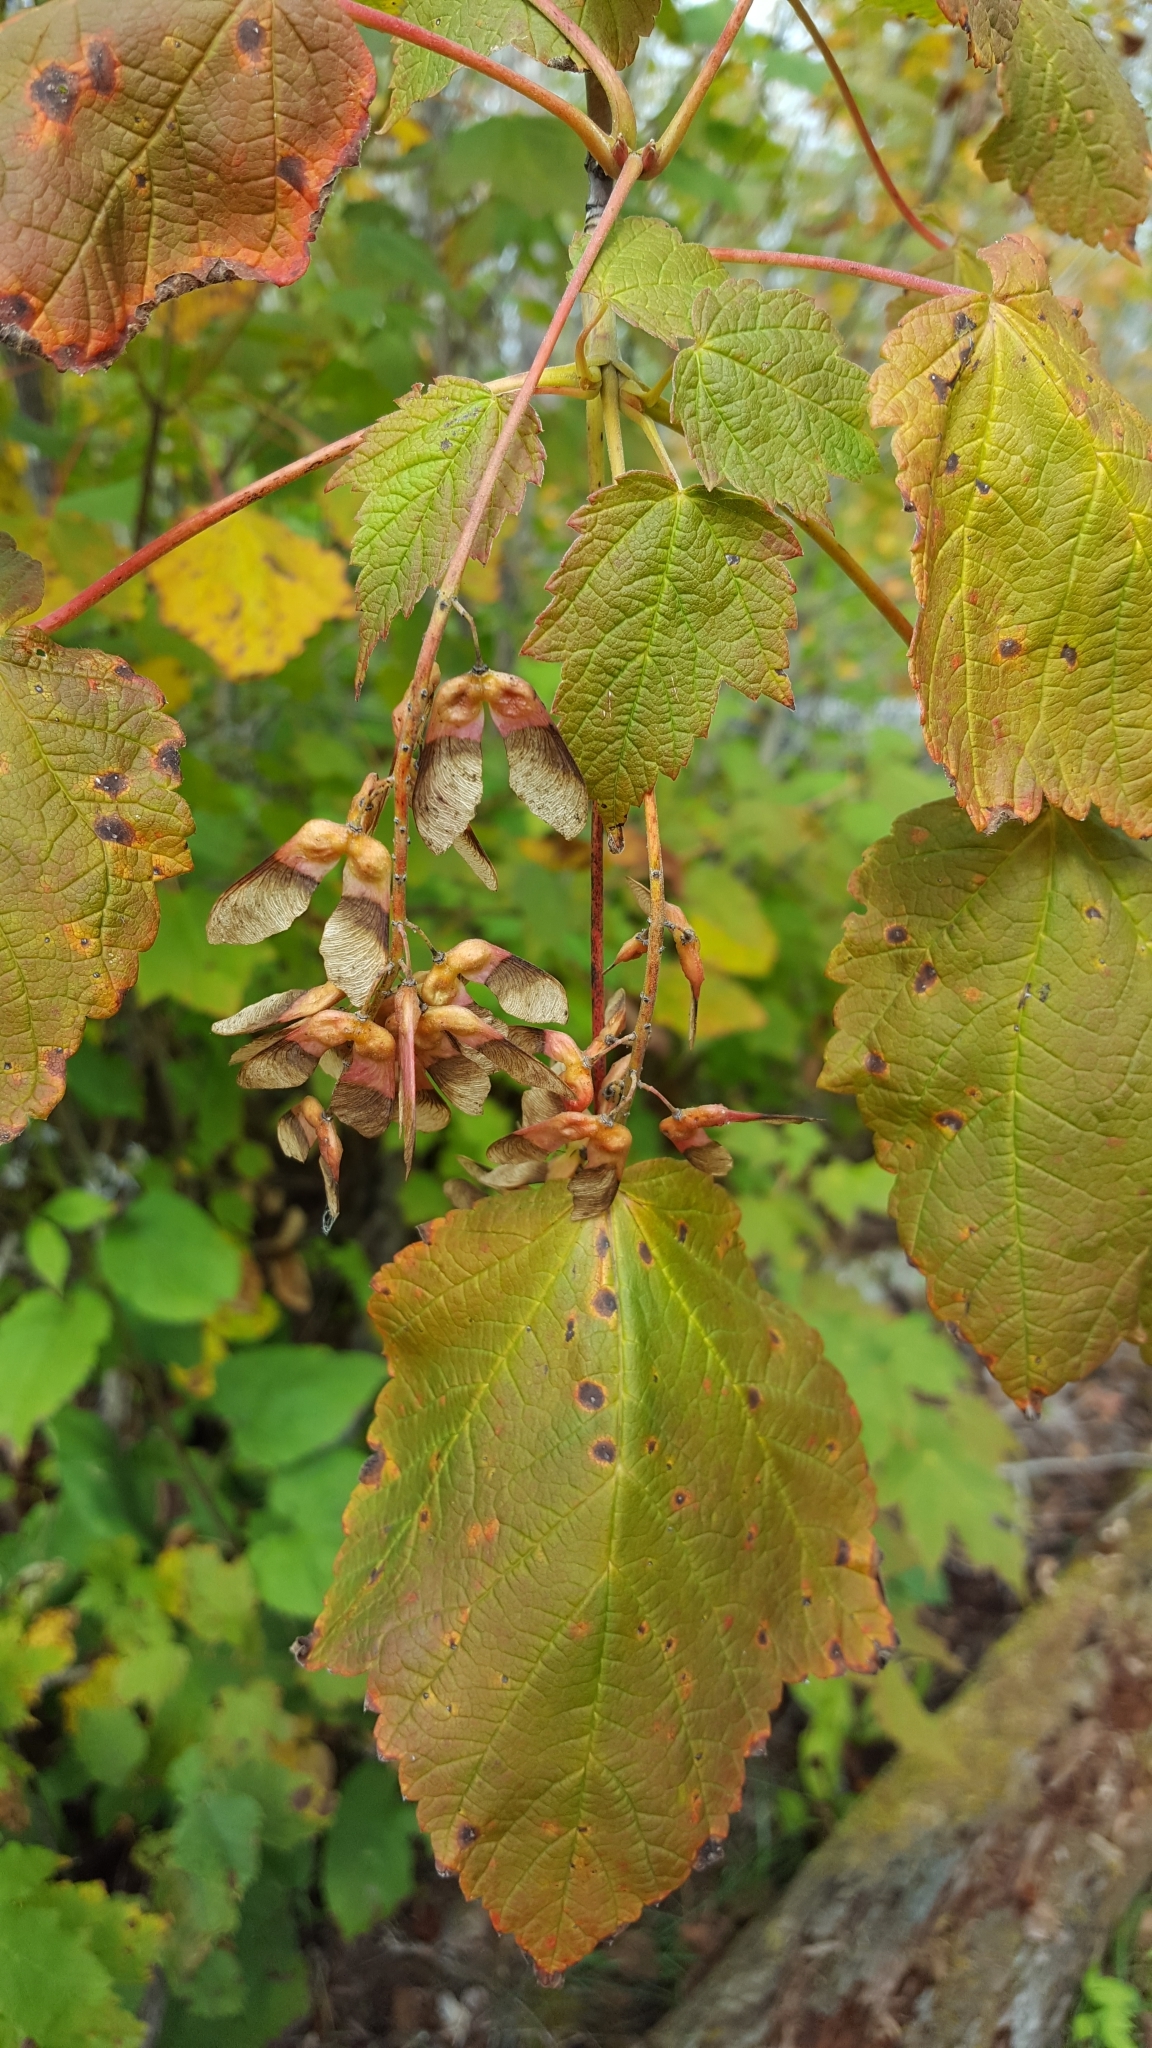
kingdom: Plantae
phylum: Tracheophyta
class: Magnoliopsida
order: Sapindales
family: Sapindaceae
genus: Acer
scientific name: Acer spicatum
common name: Mountain maple
